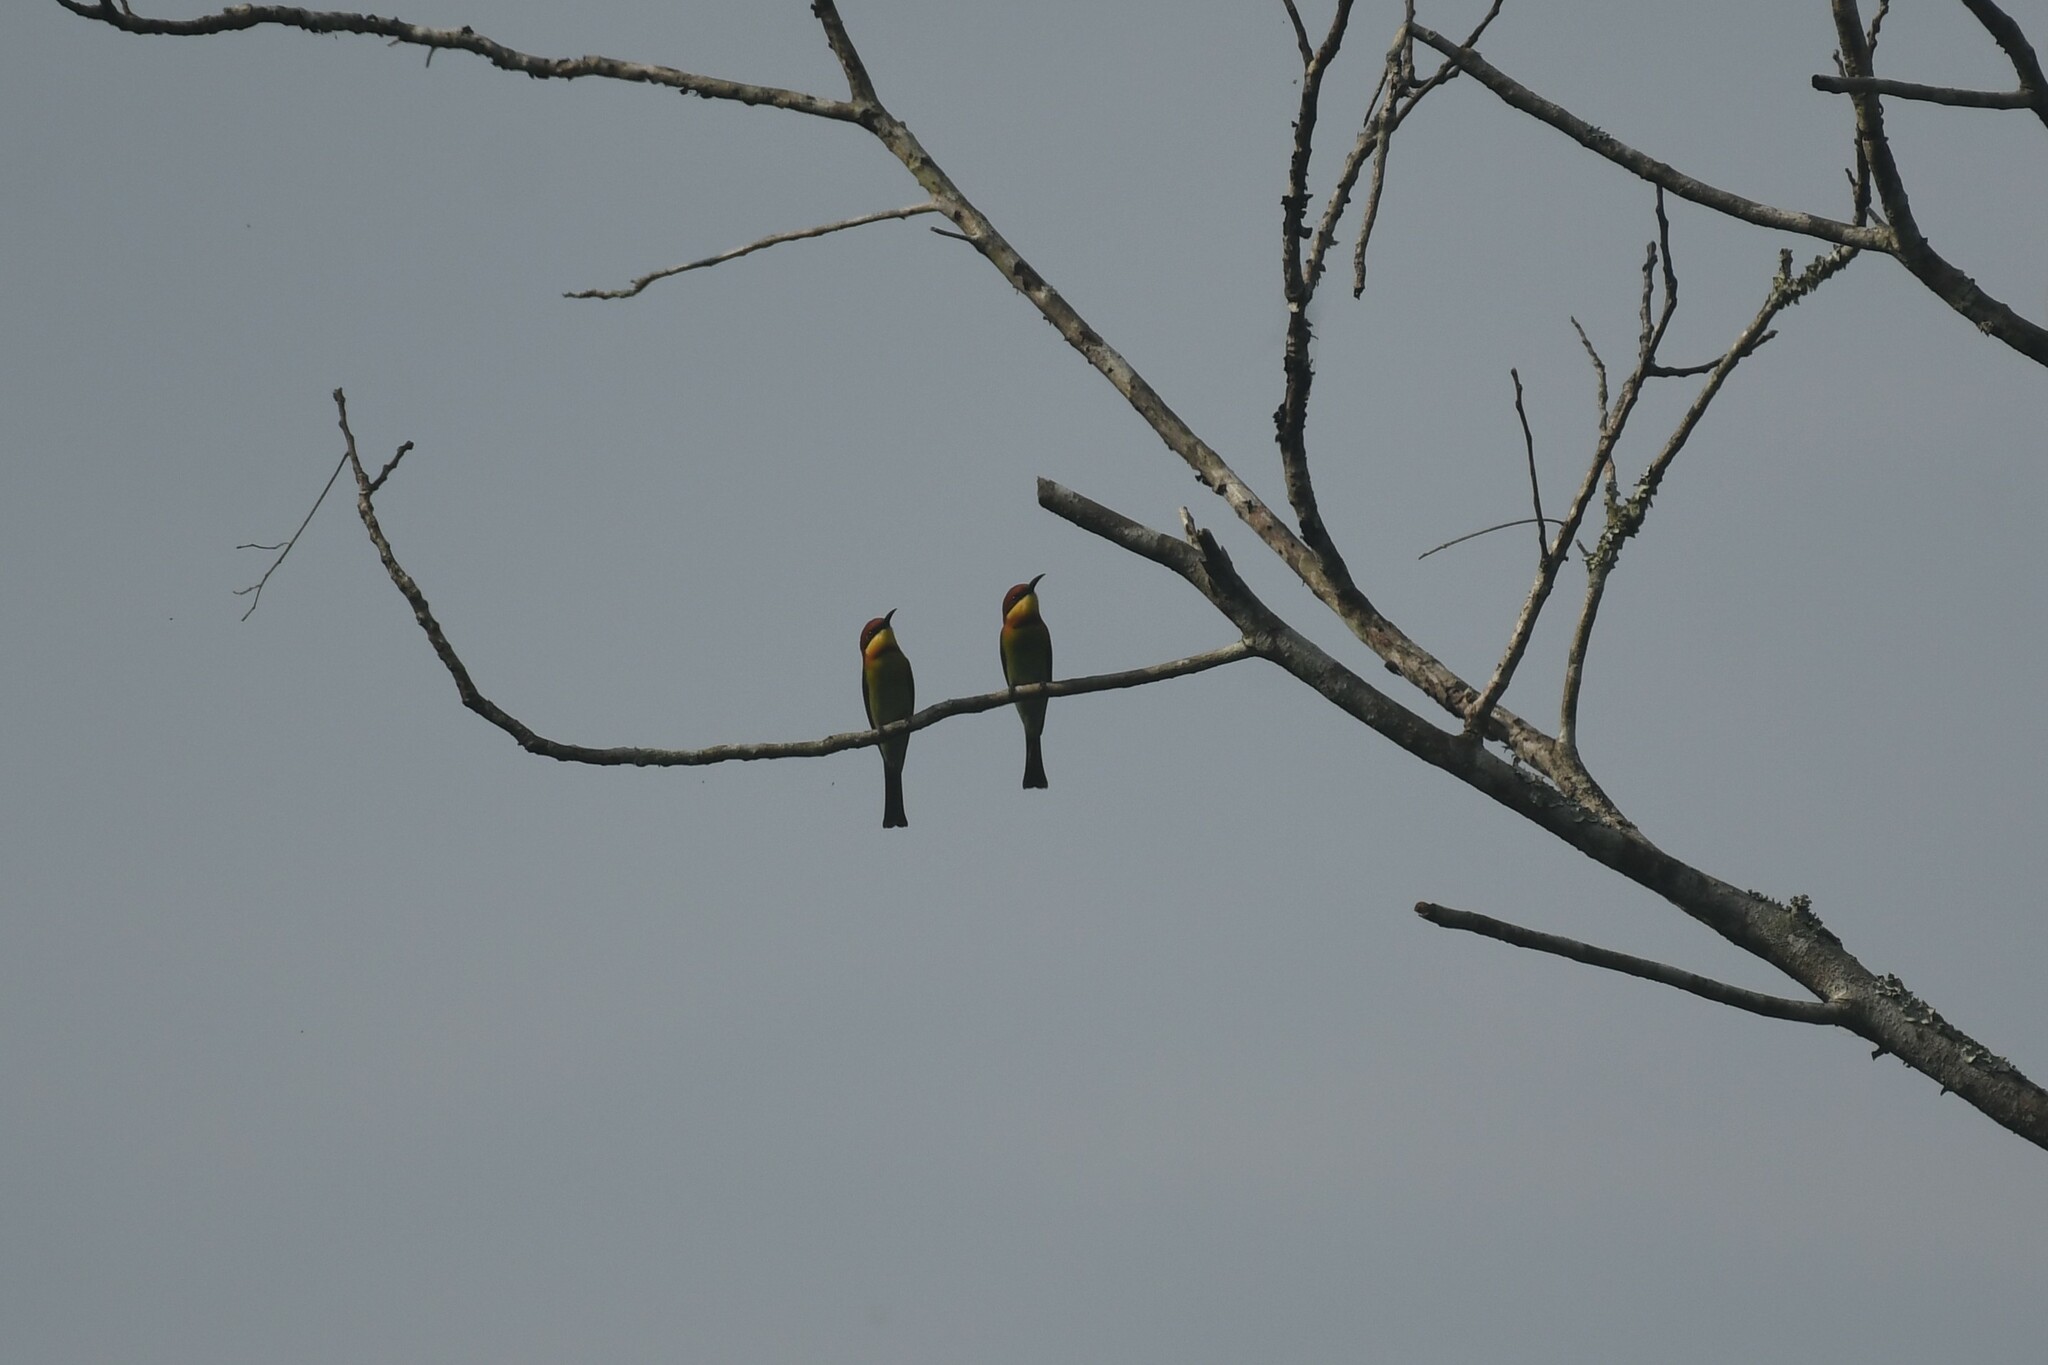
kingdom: Animalia
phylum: Chordata
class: Aves
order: Coraciiformes
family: Meropidae
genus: Merops
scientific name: Merops leschenaulti
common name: Chestnut-headed bee-eater
